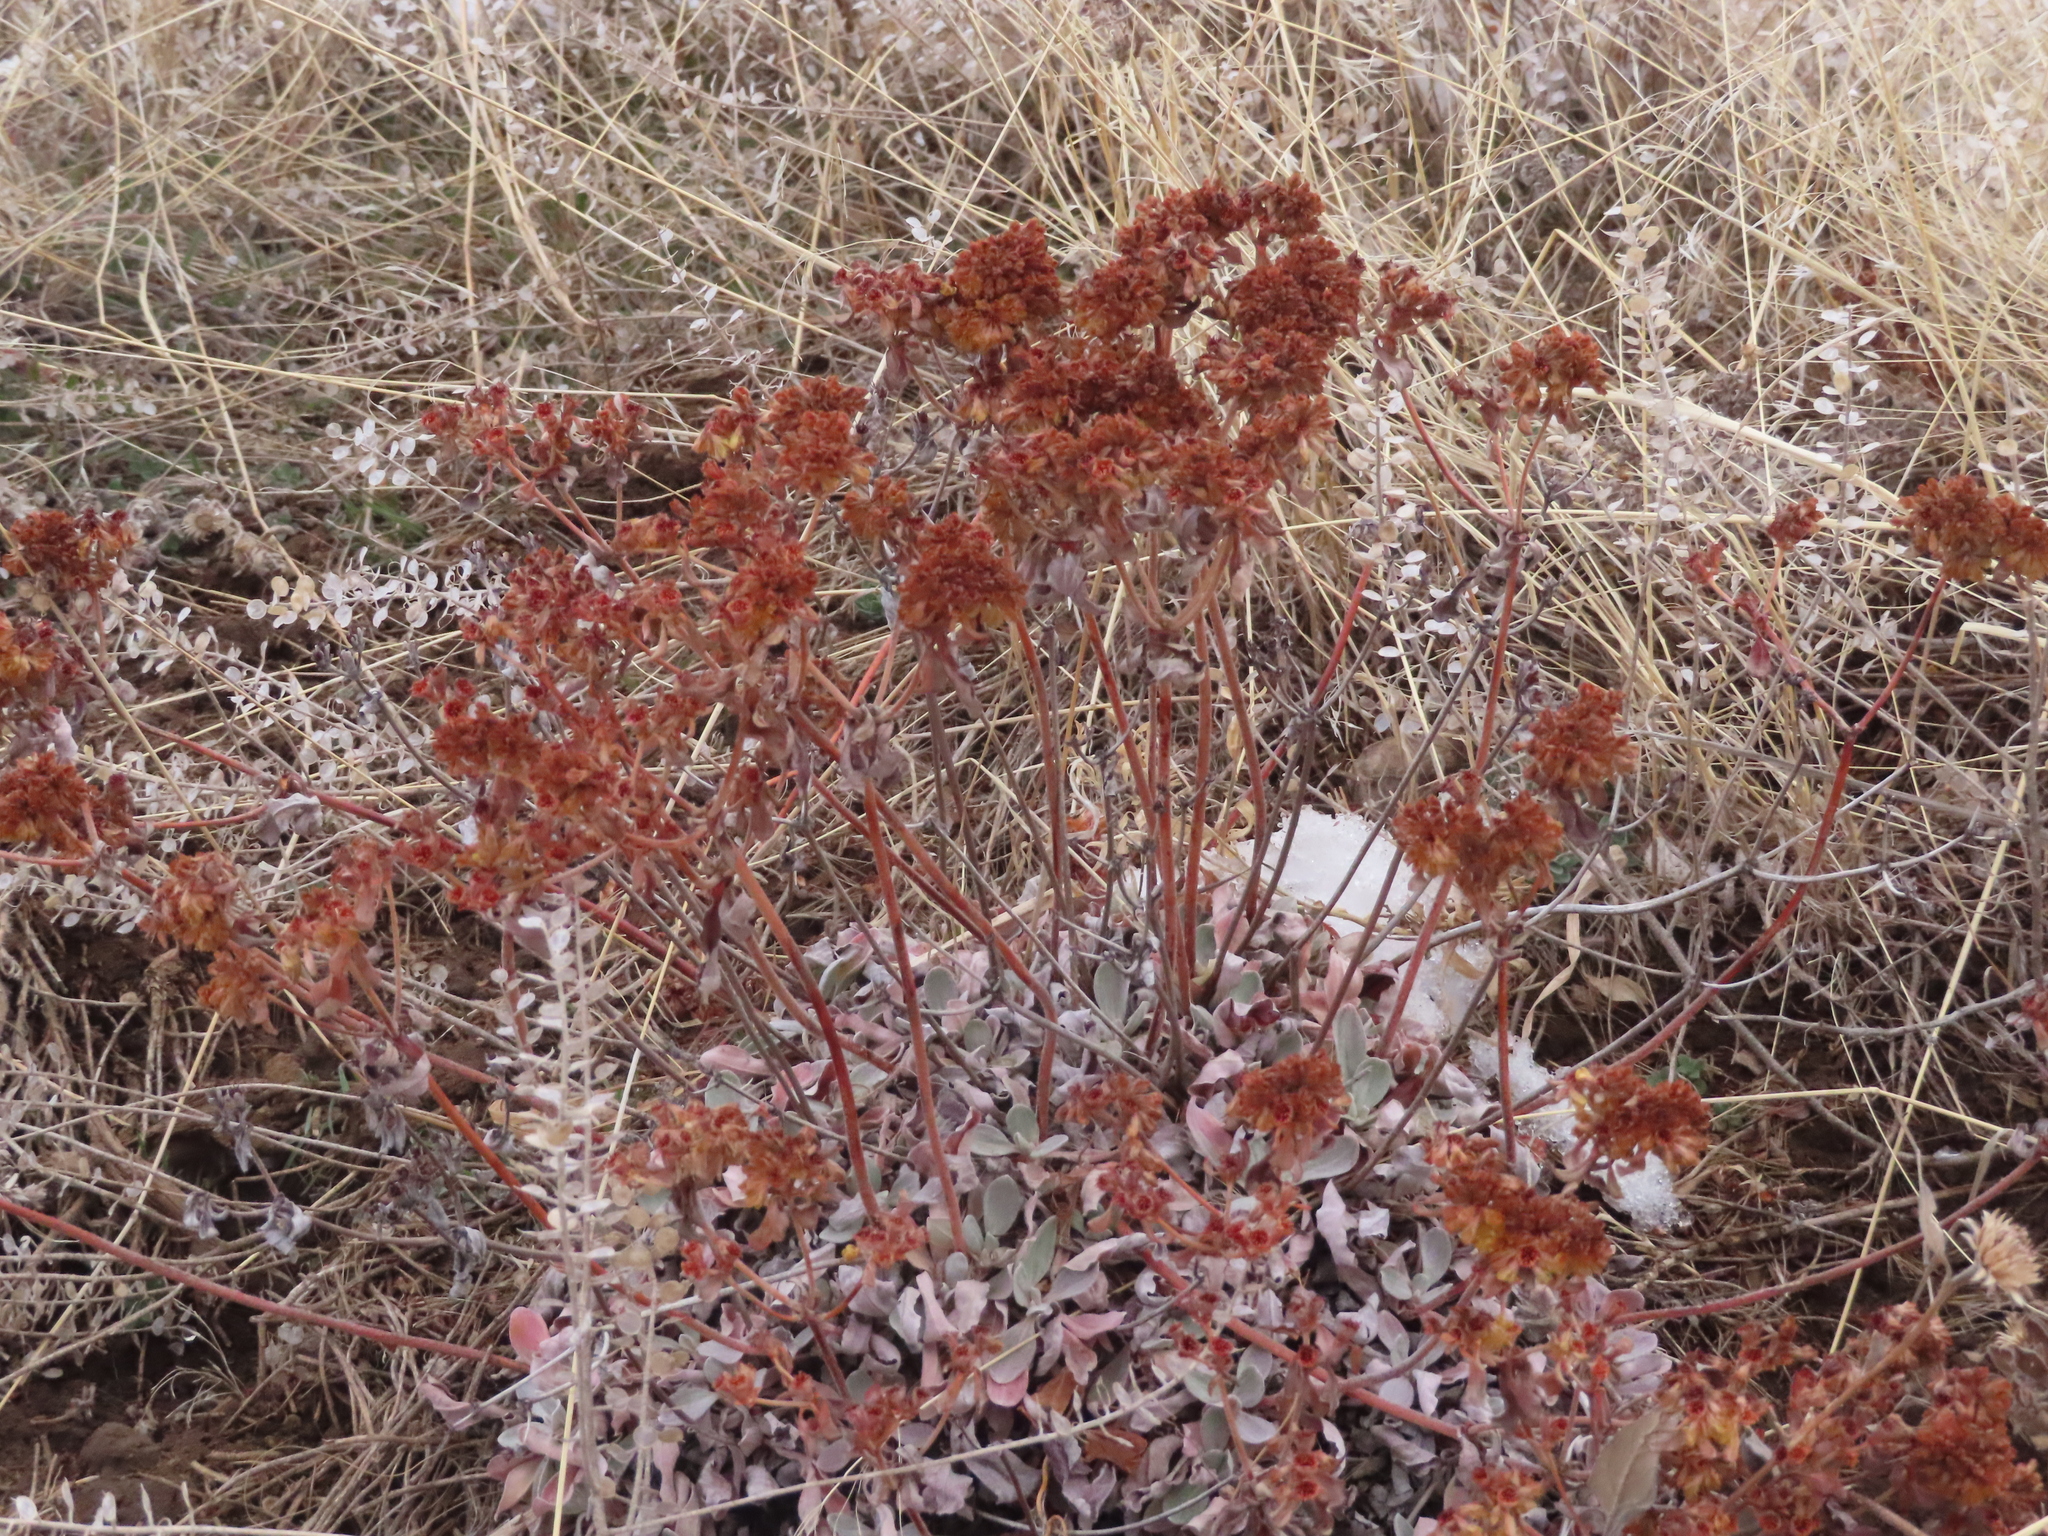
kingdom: Plantae
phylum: Tracheophyta
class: Magnoliopsida
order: Caryophyllales
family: Polygonaceae
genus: Eriogonum
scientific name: Eriogonum umbellatum
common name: Sulfur-buckwheat
